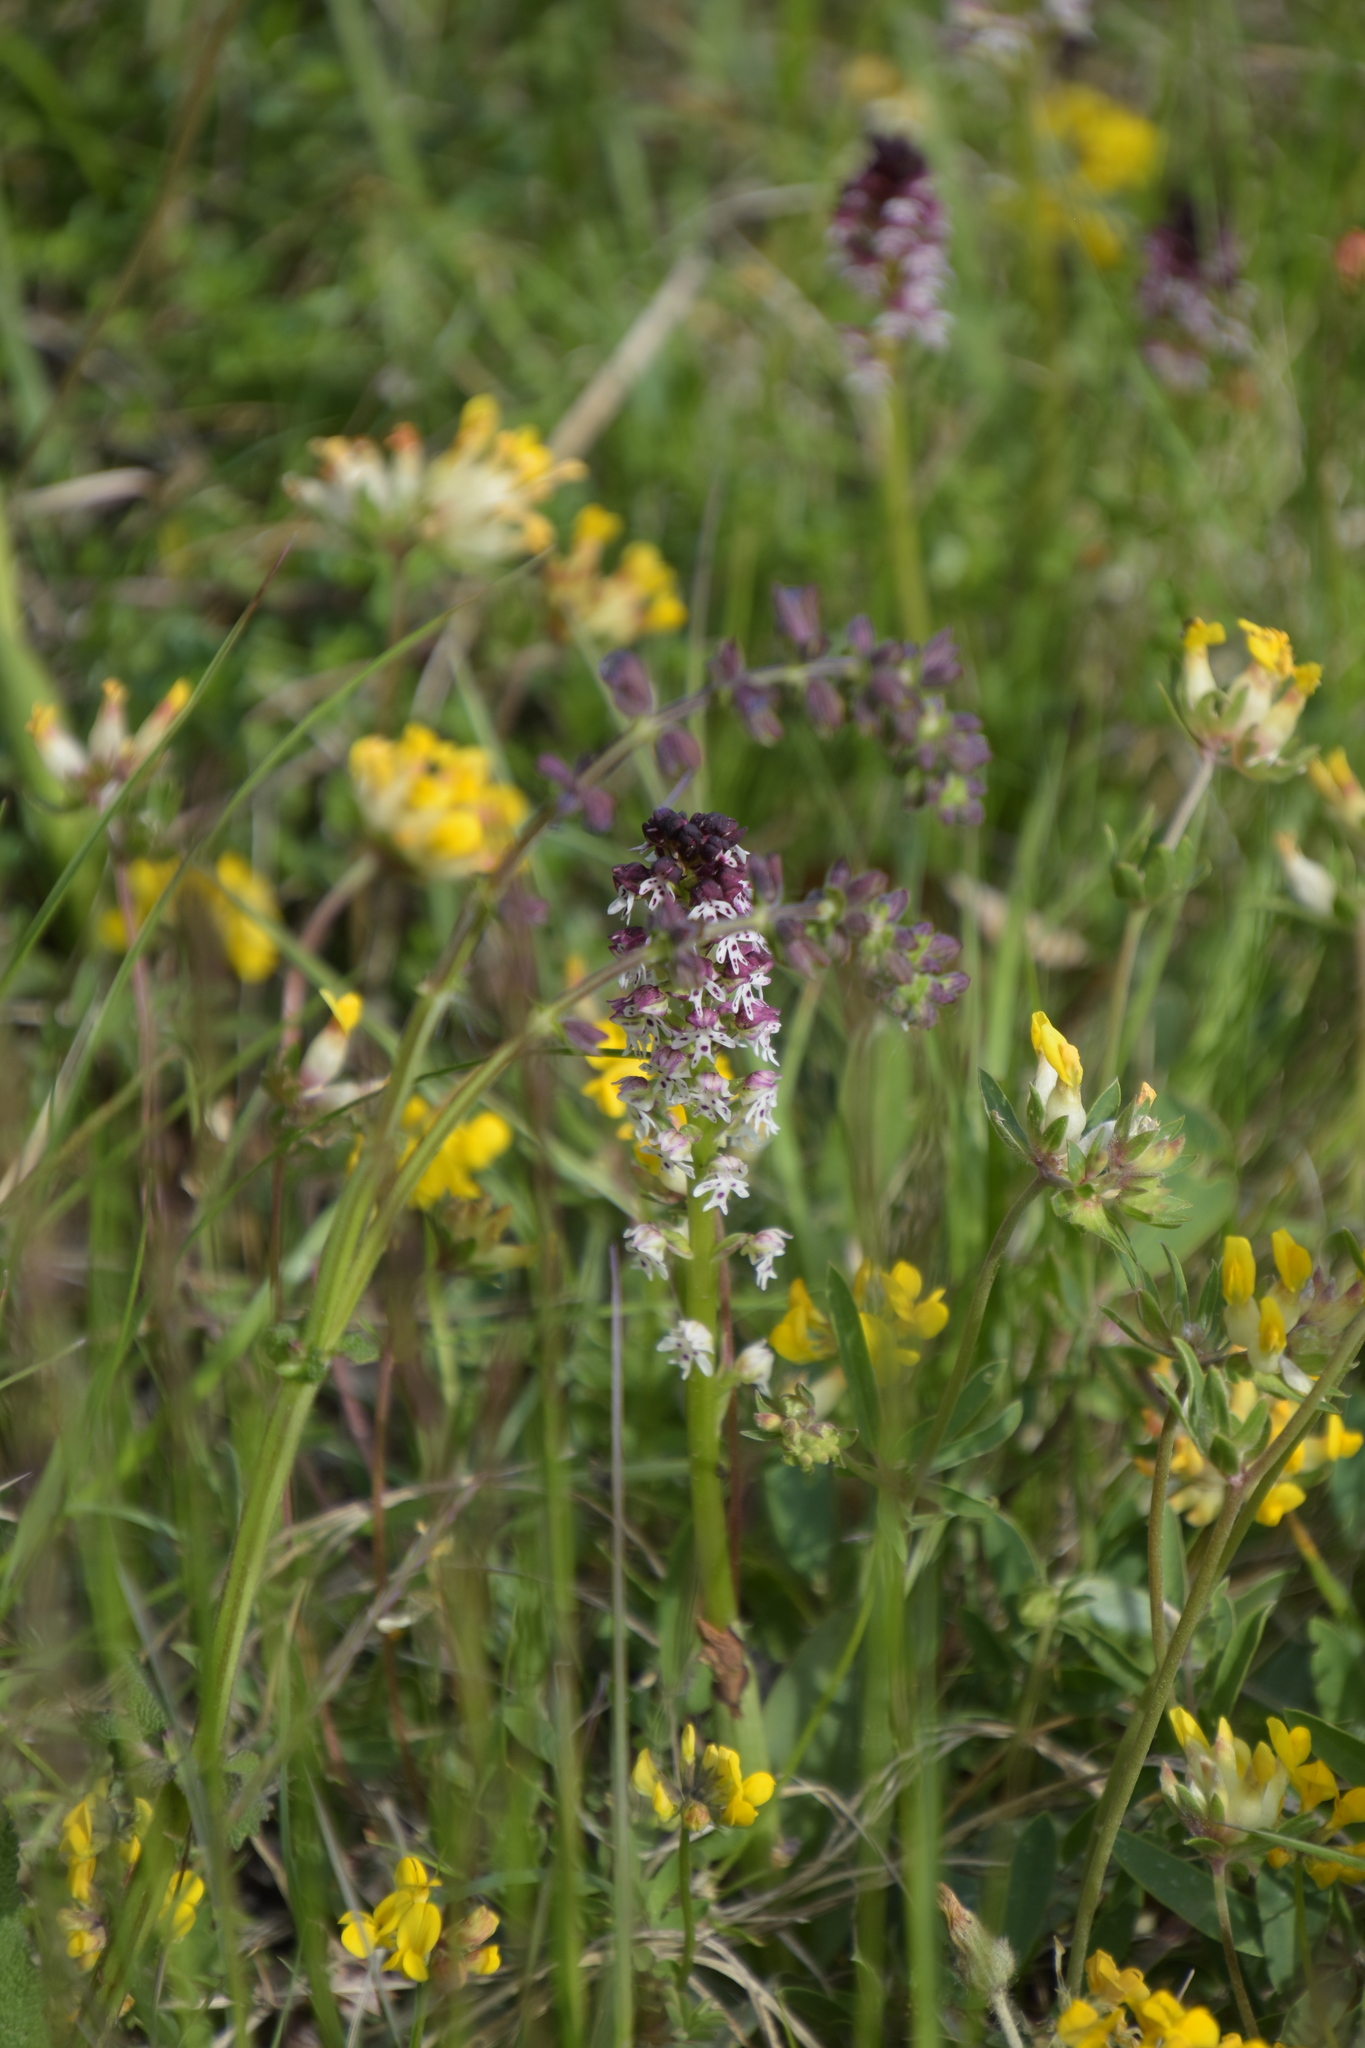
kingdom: Plantae
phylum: Tracheophyta
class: Liliopsida
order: Asparagales
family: Orchidaceae
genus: Neotinea
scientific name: Neotinea ustulata
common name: Burnt orchid
